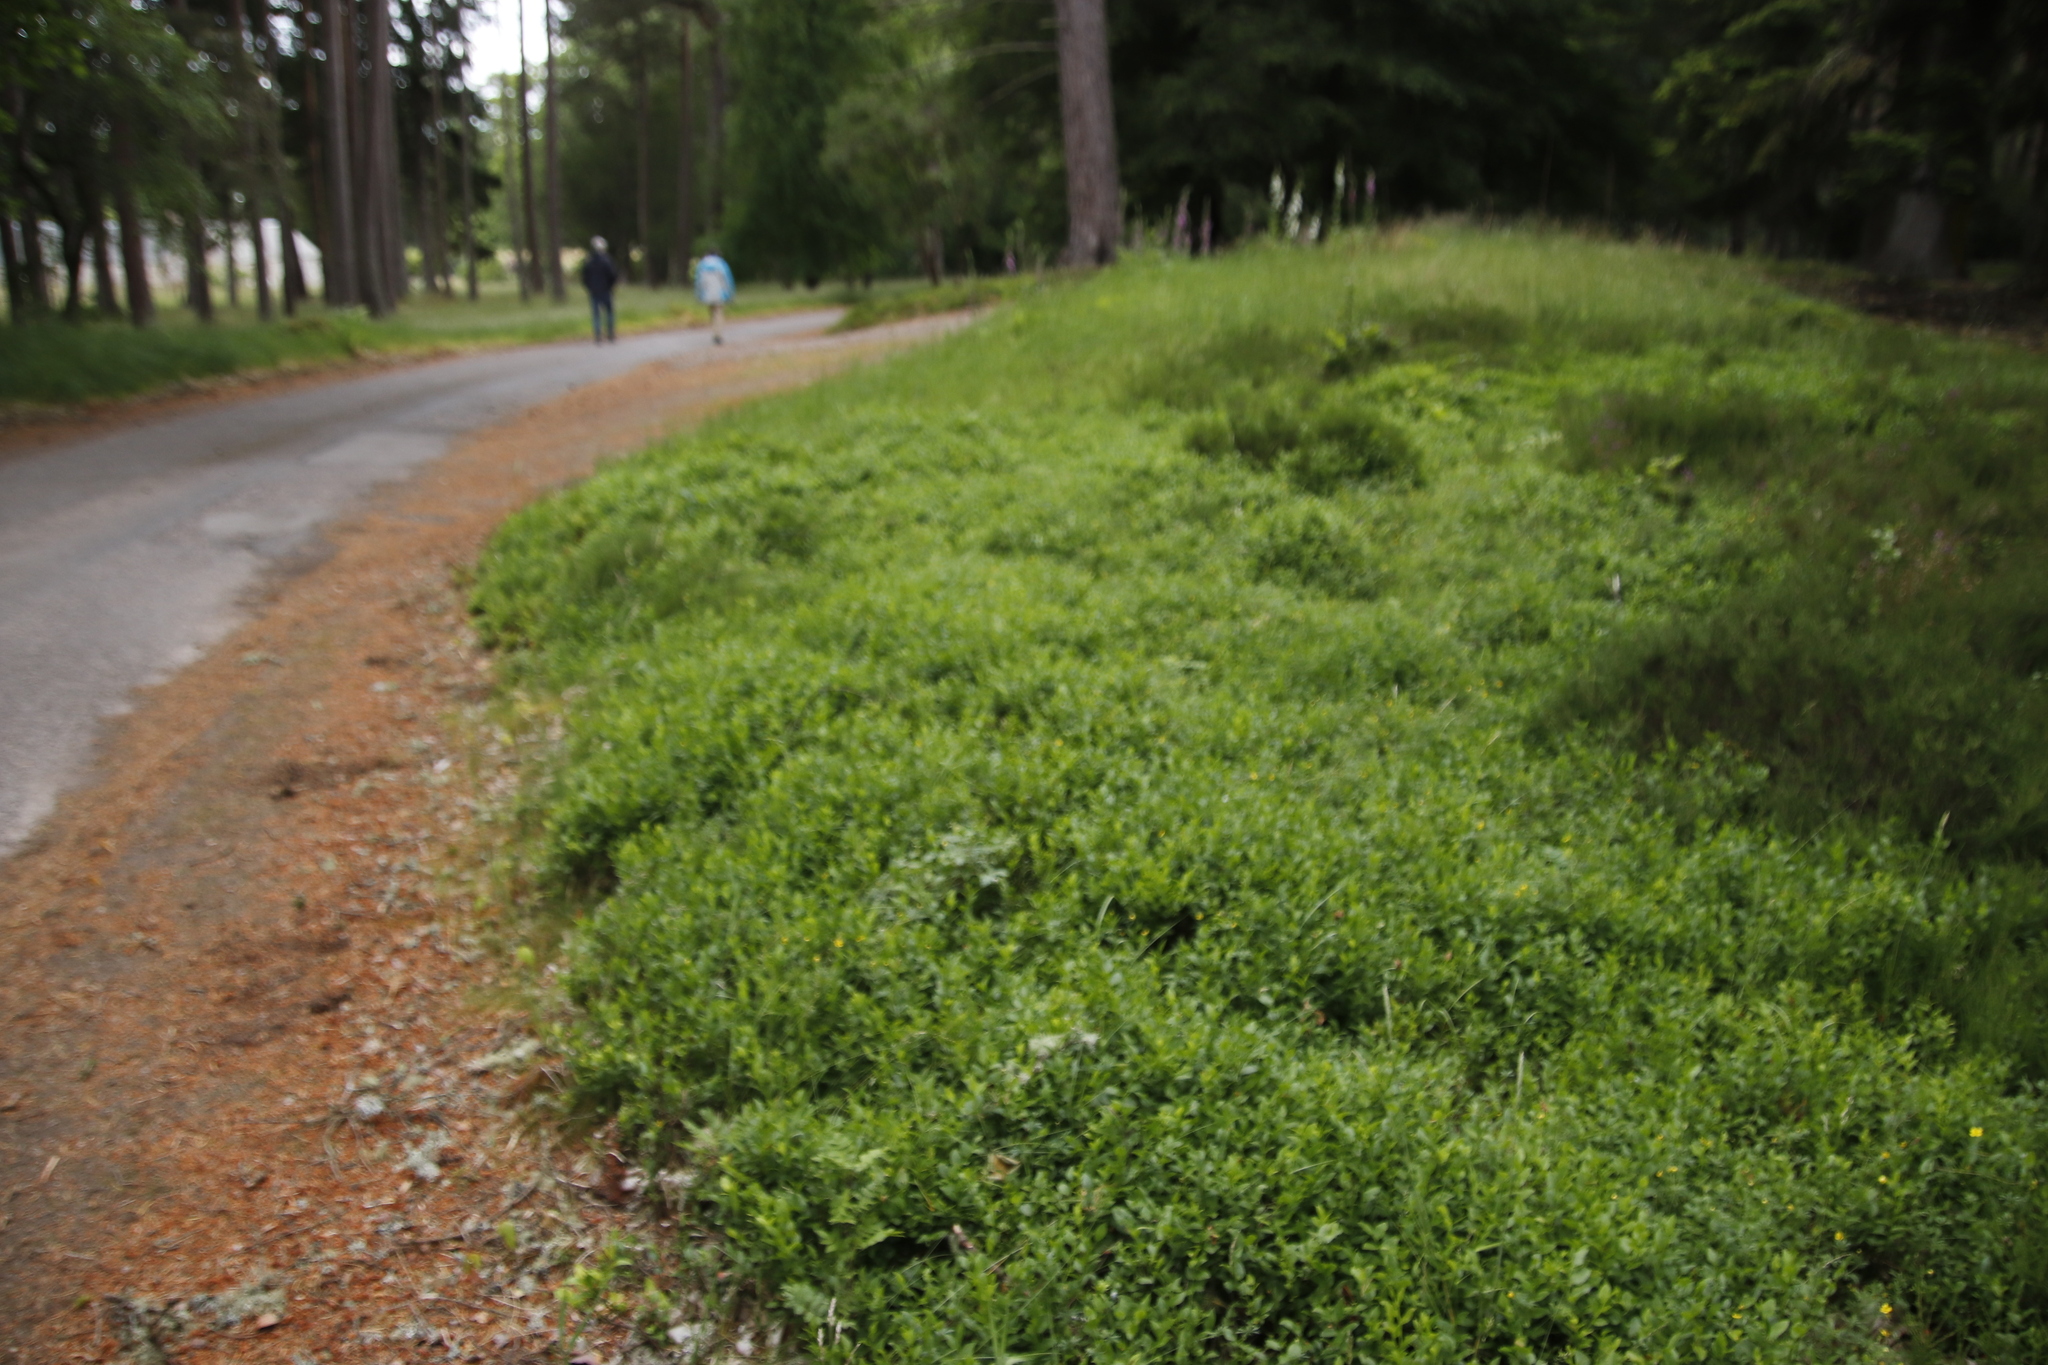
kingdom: Plantae
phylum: Tracheophyta
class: Magnoliopsida
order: Ericales
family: Ericaceae
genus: Vaccinium
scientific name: Vaccinium myrtillus
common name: Bilberry
